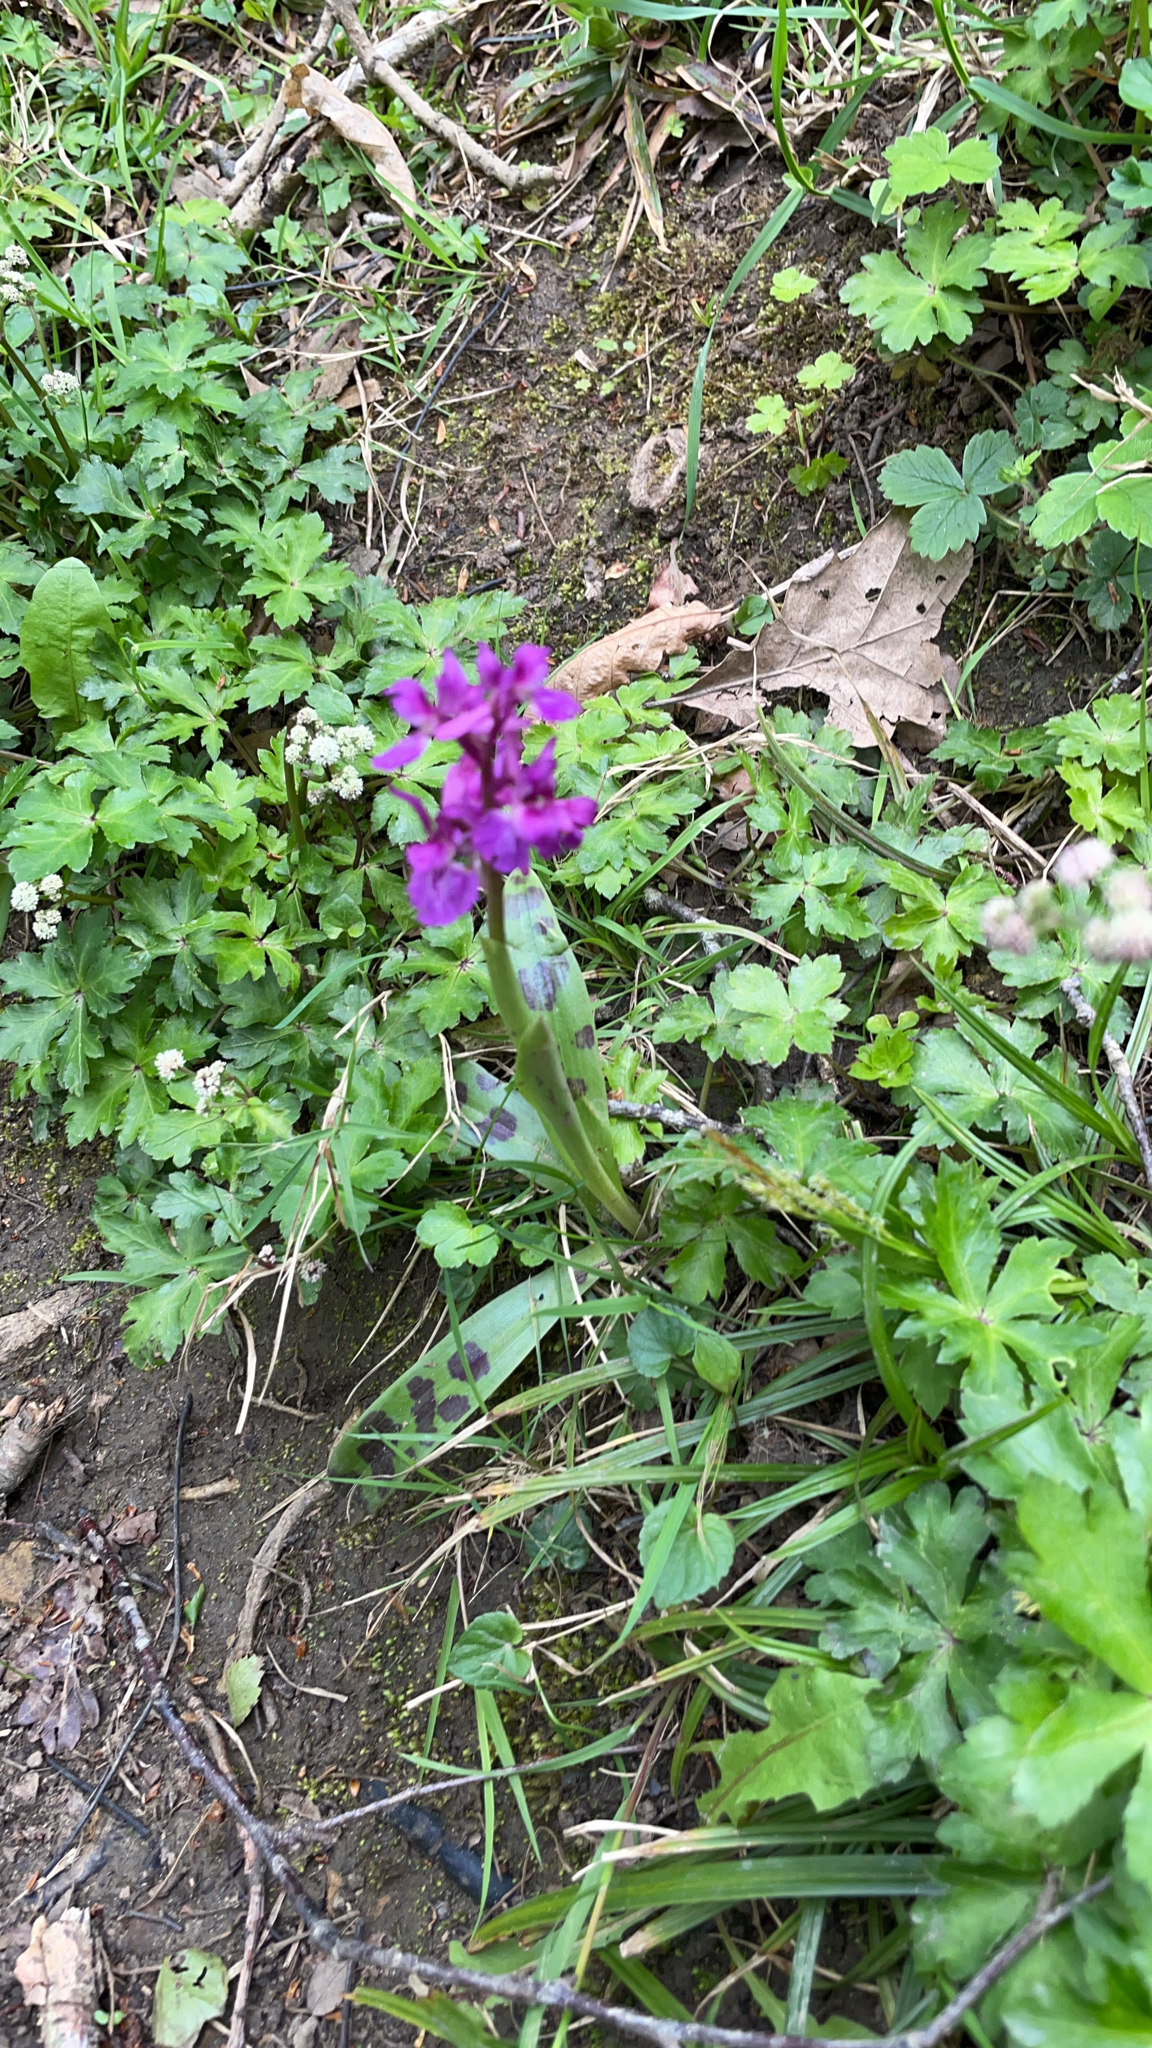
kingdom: Plantae
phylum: Tracheophyta
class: Liliopsida
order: Asparagales
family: Orchidaceae
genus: Orchis
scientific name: Orchis mascula
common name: Early-purple orchid
